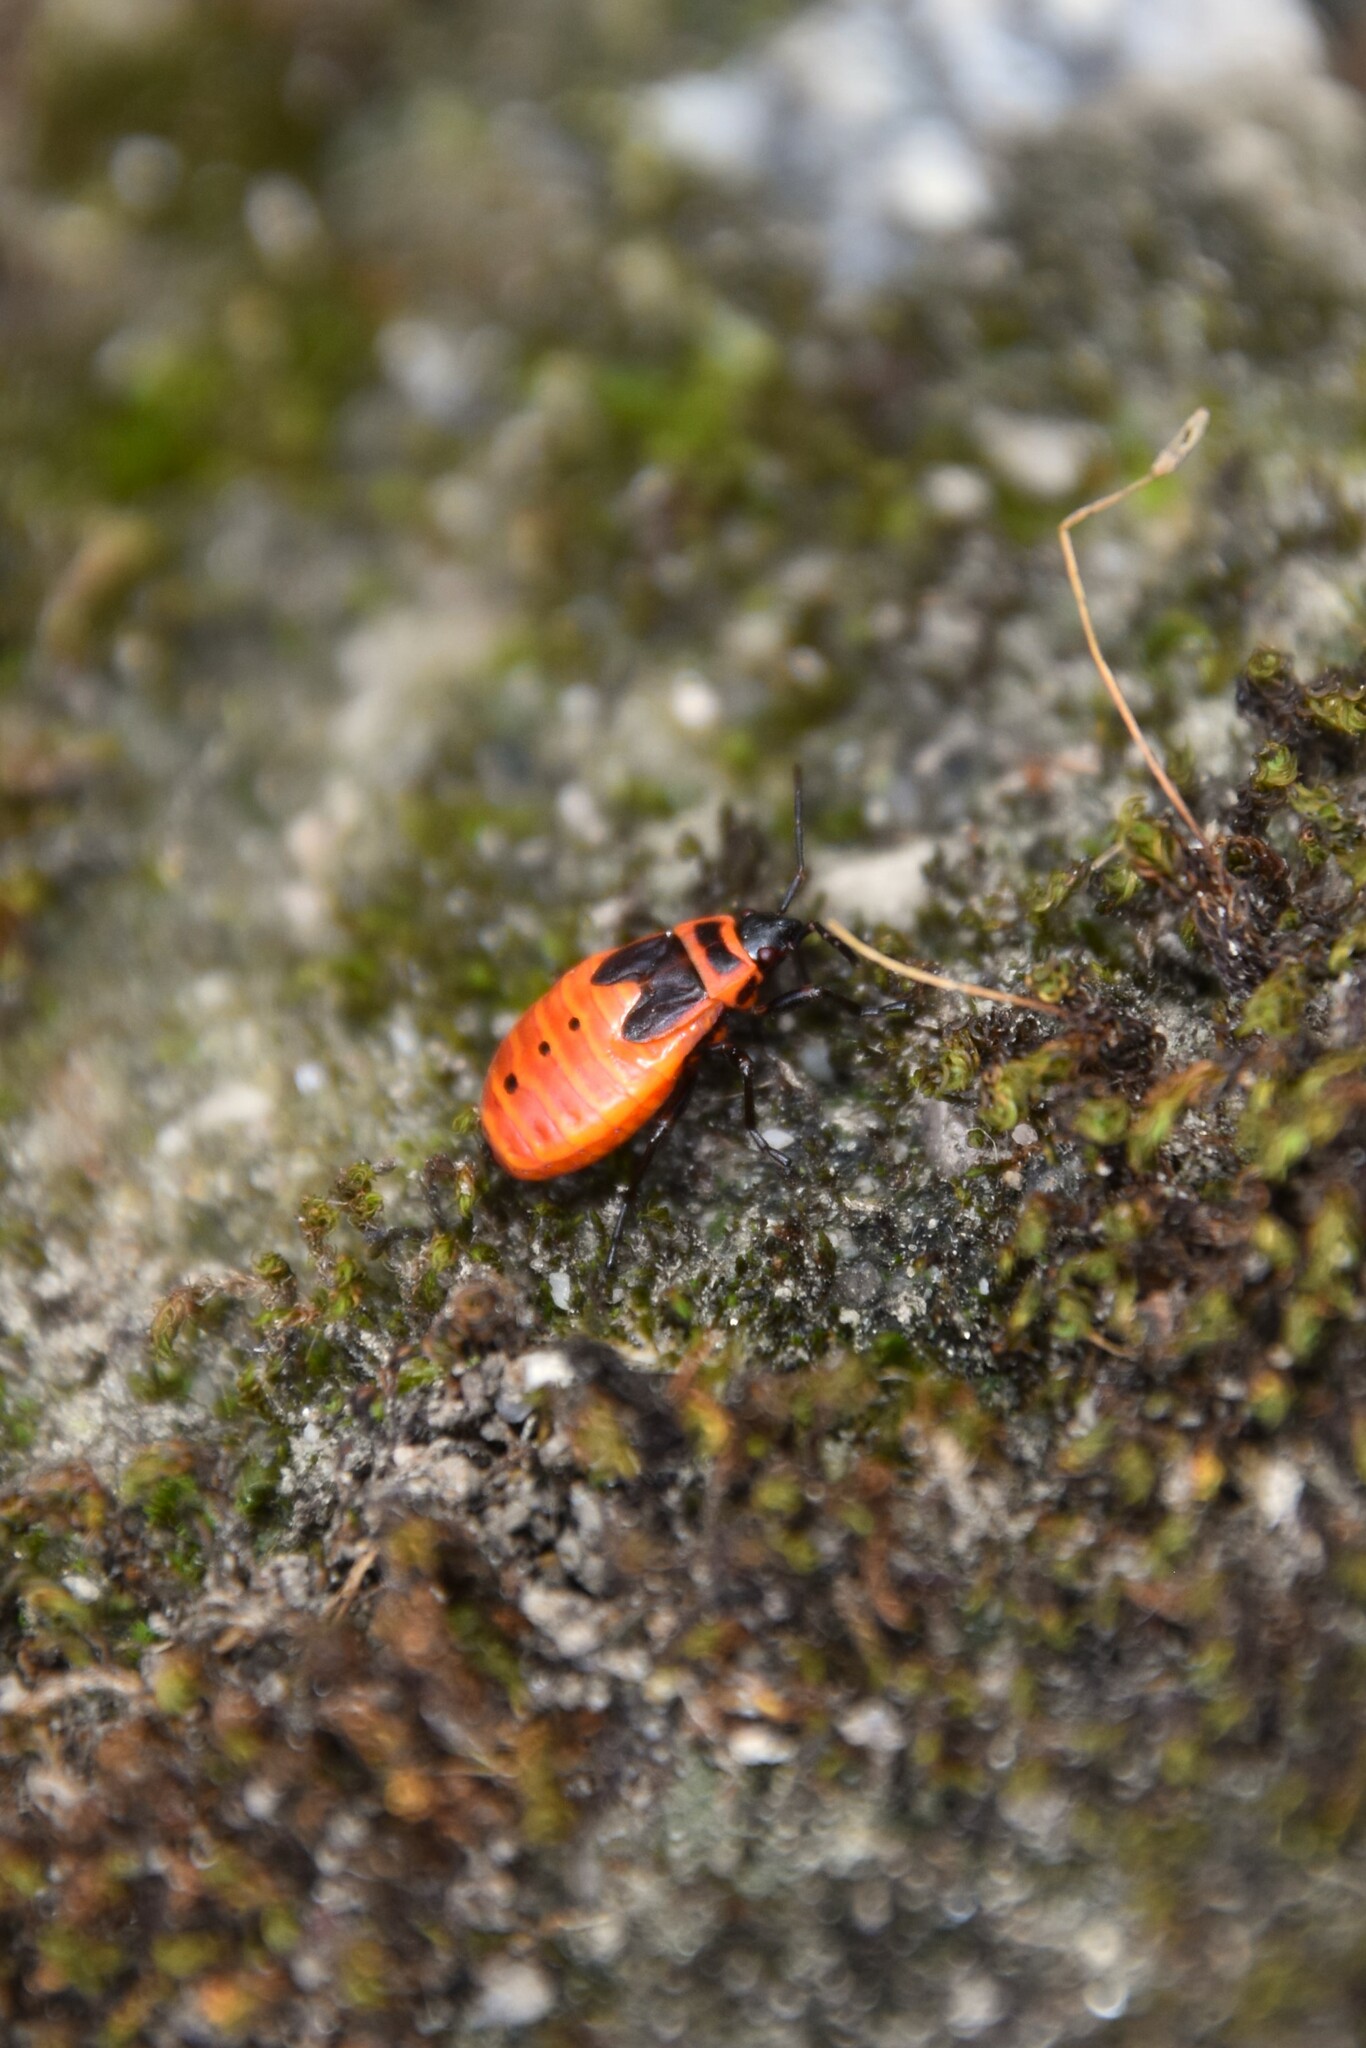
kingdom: Animalia
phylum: Arthropoda
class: Insecta
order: Hemiptera
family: Pyrrhocoridae
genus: Pyrrhocoris
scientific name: Pyrrhocoris apterus
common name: Firebug
